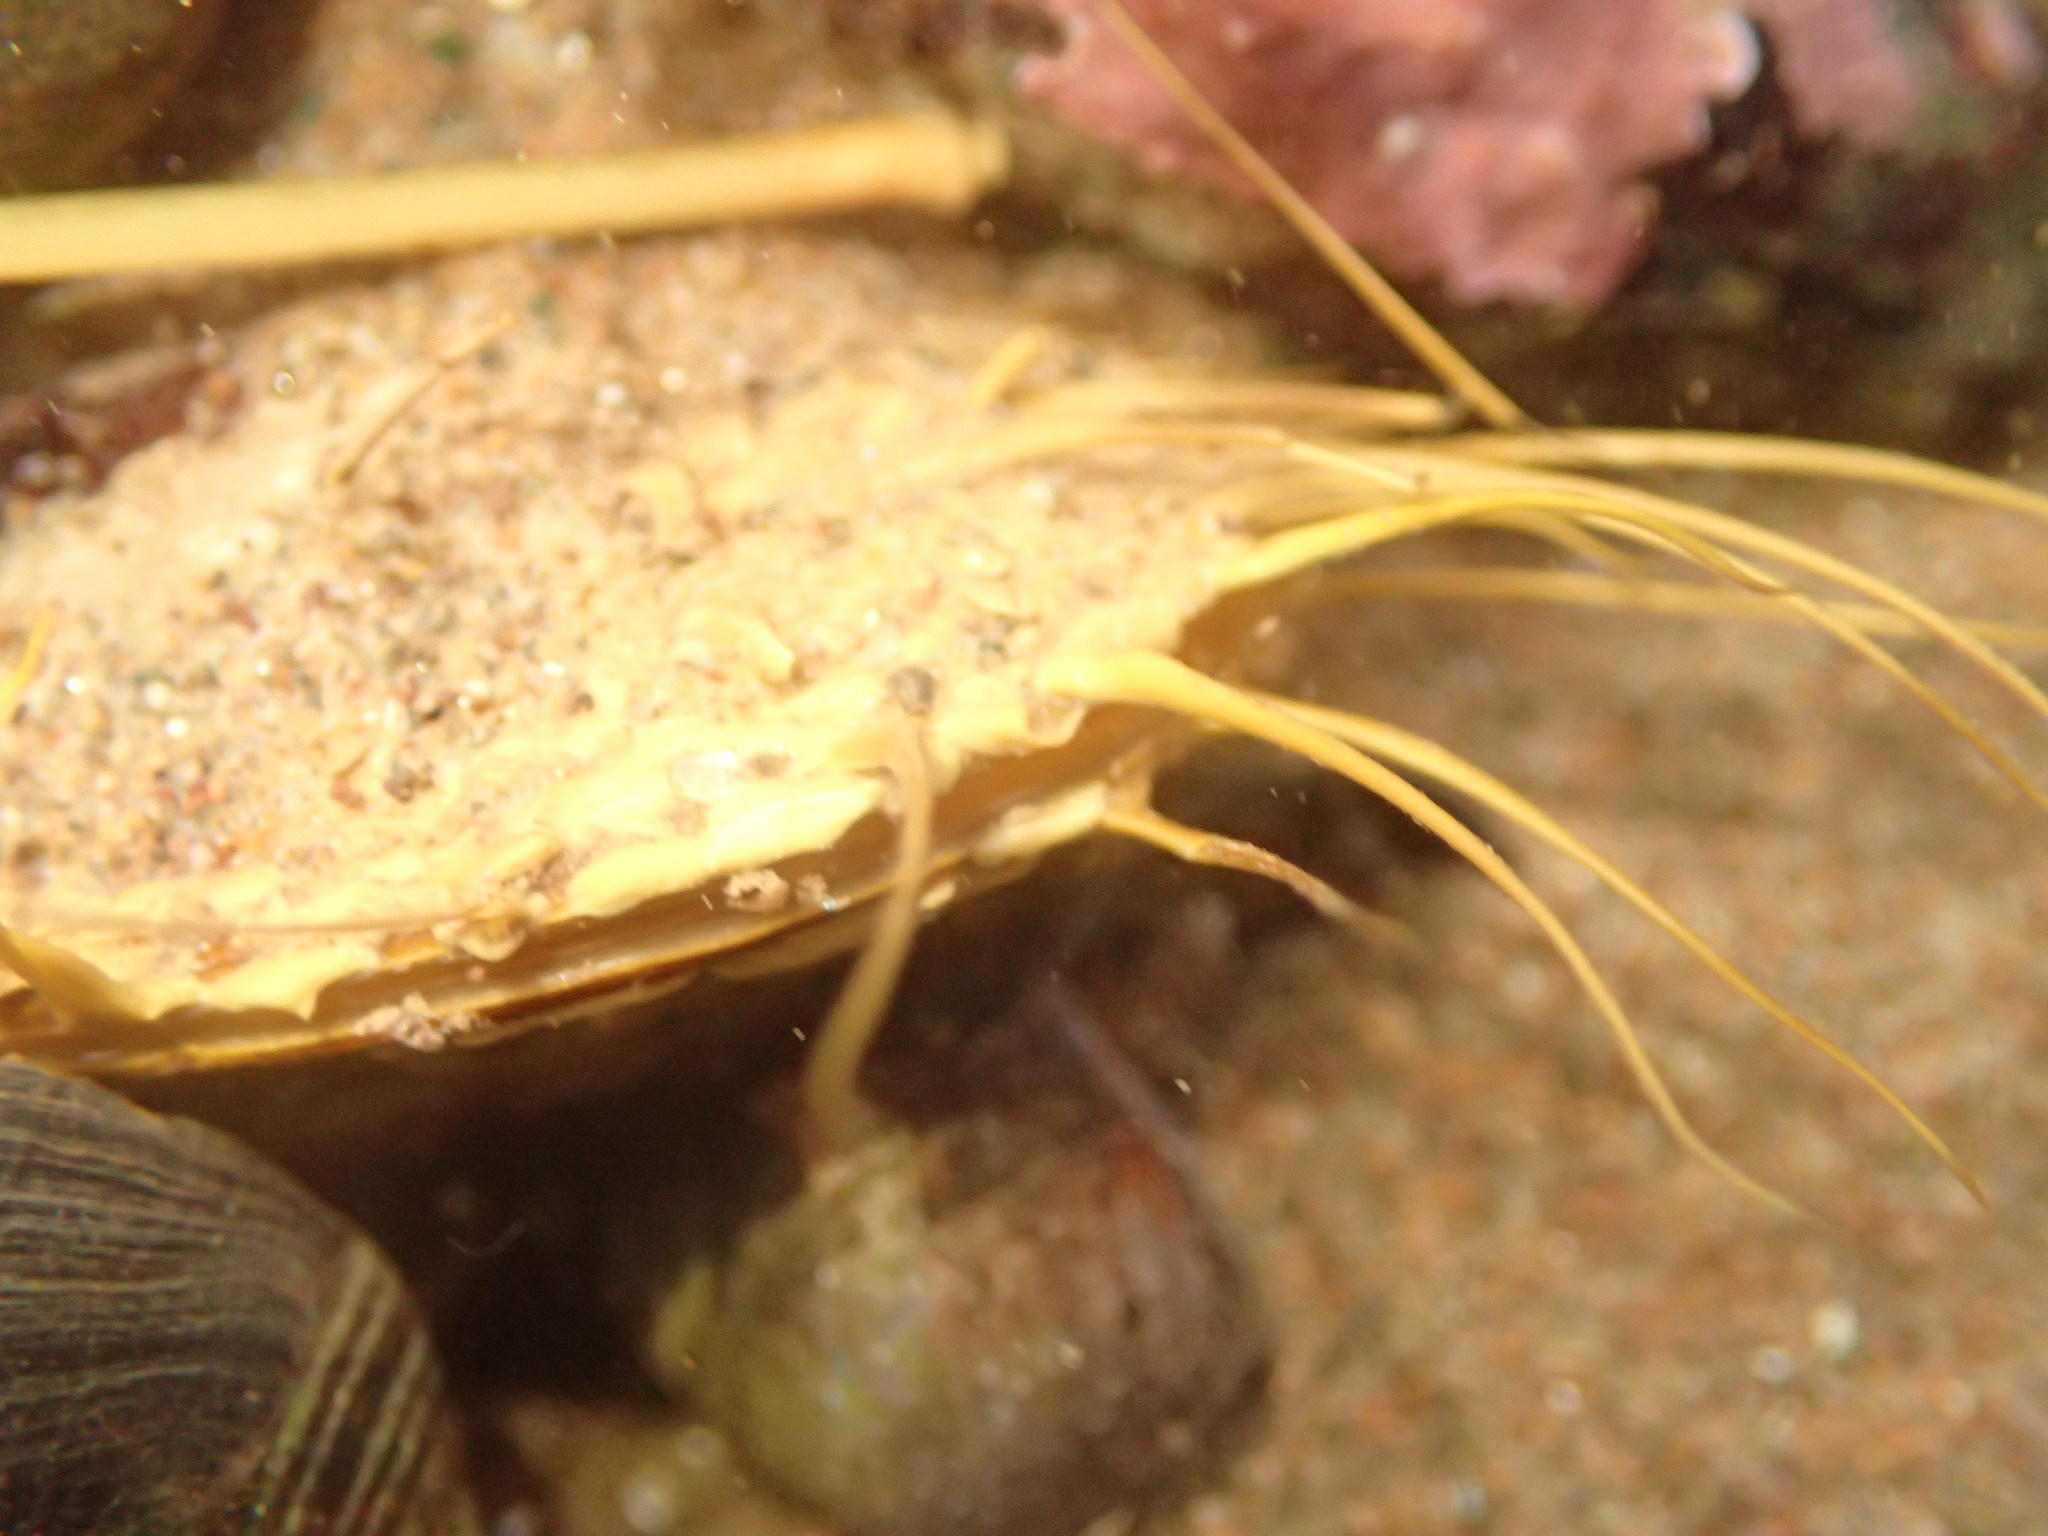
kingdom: Animalia
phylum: Mollusca
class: Bivalvia
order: Mytilida
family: Mytilidae
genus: Modiolus
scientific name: Modiolus modiolus
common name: Horse-mussel
